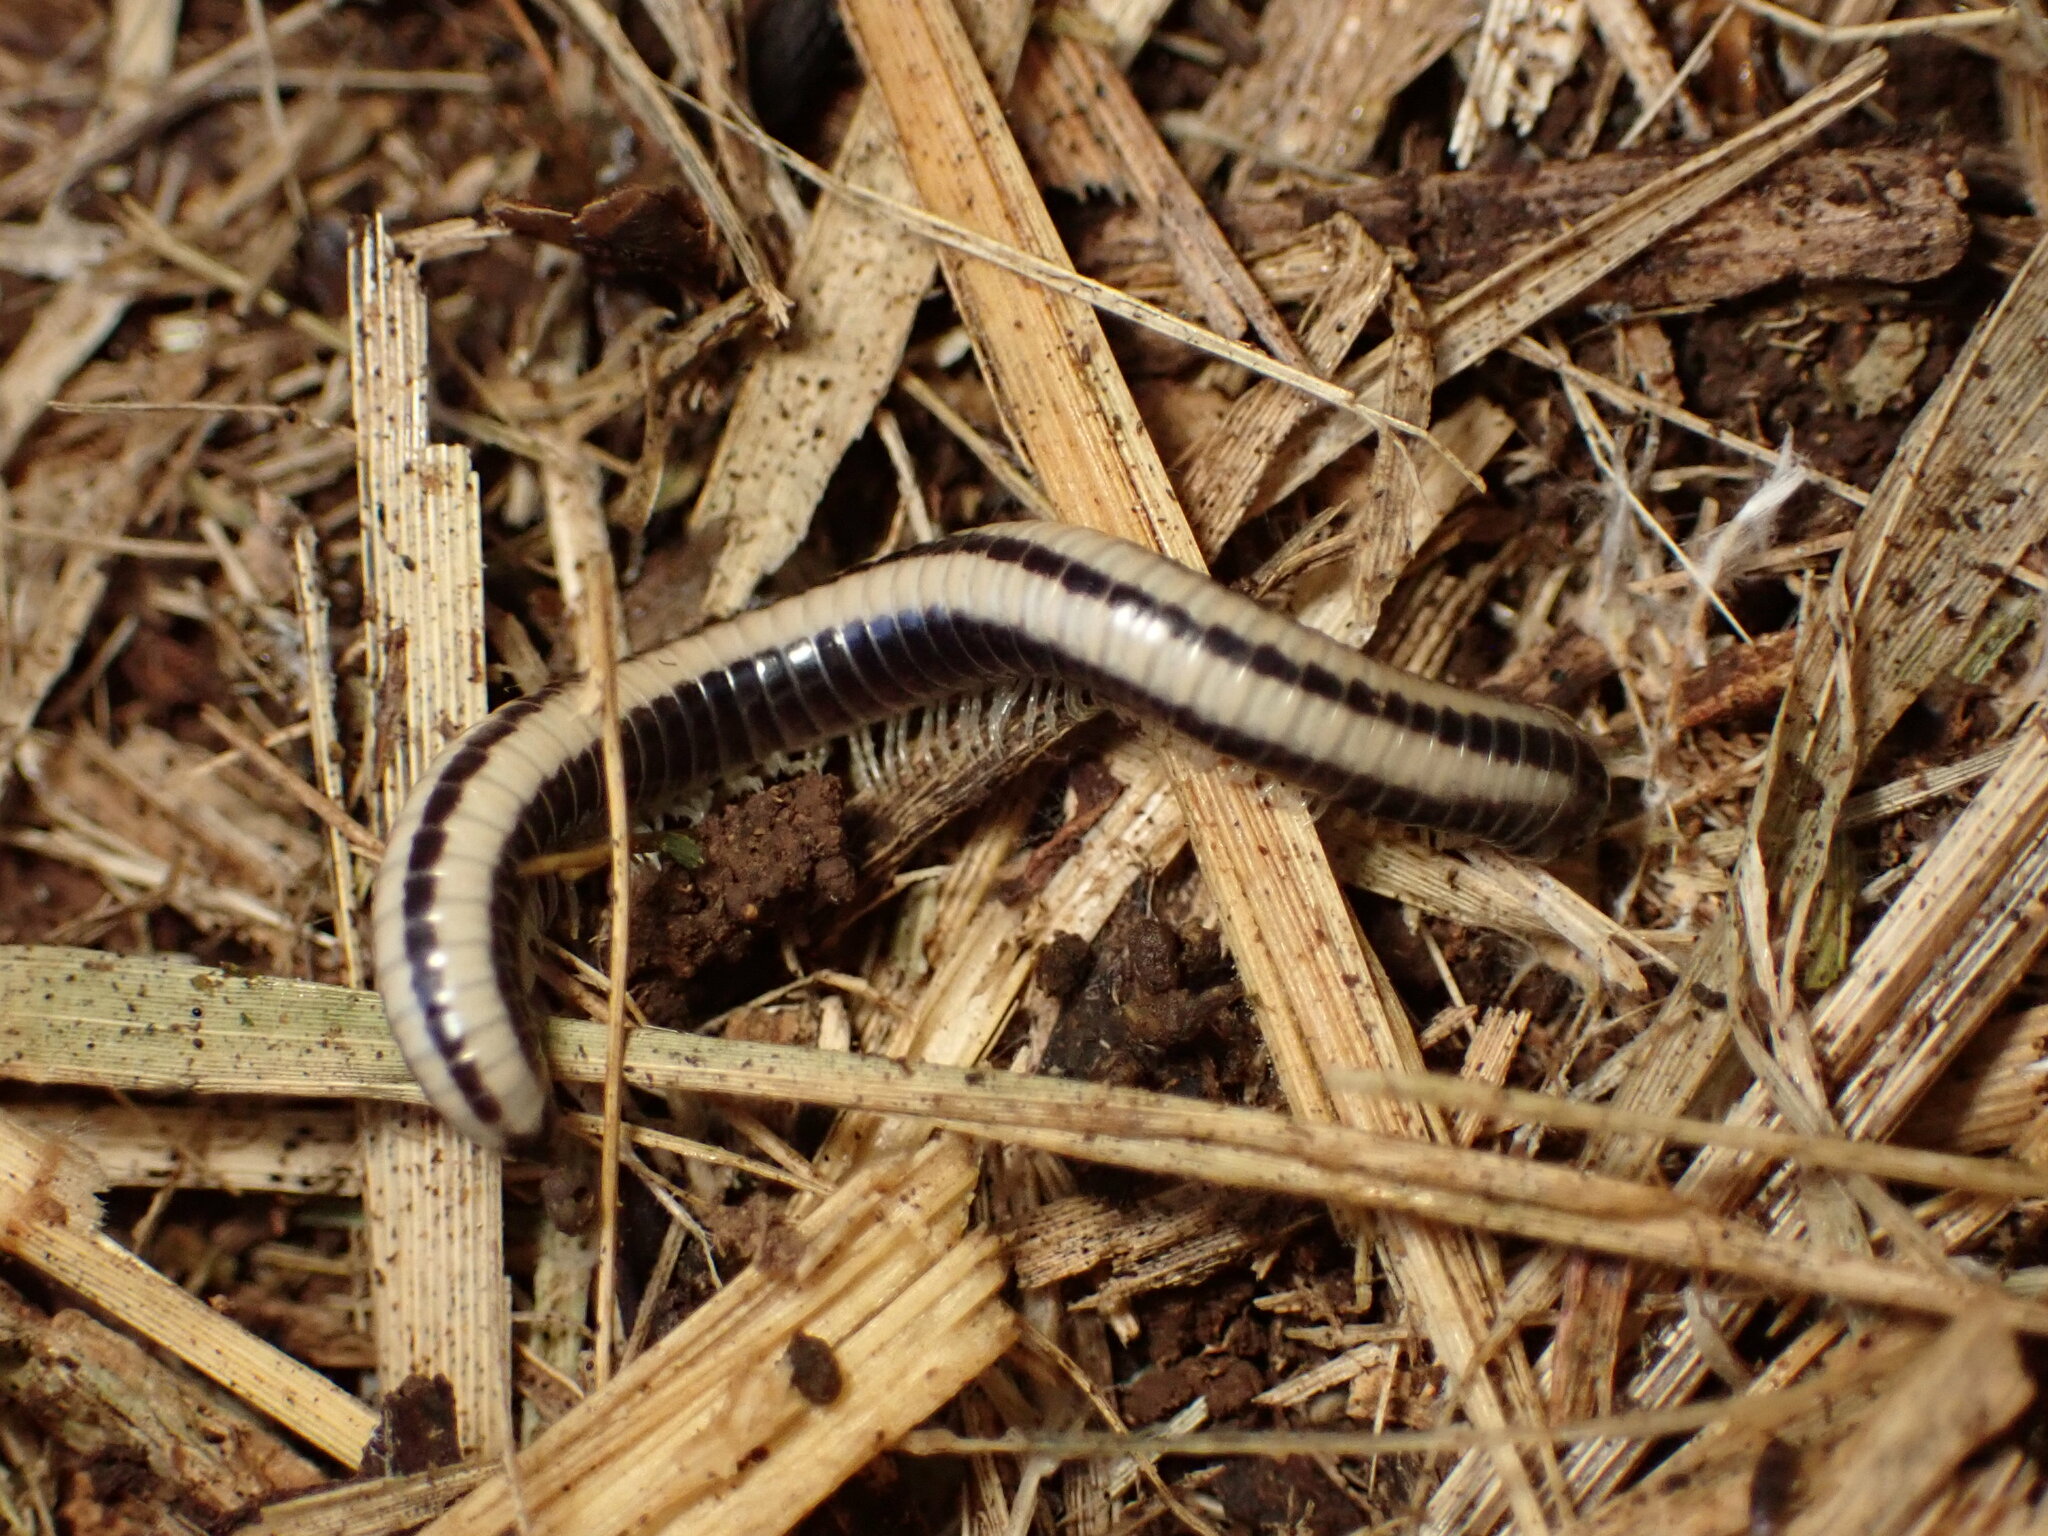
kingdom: Animalia
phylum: Arthropoda
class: Diplopoda
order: Spirobolida
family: Spirobolellidae
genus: Spirobolellus
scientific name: Spirobolellus immigrans
